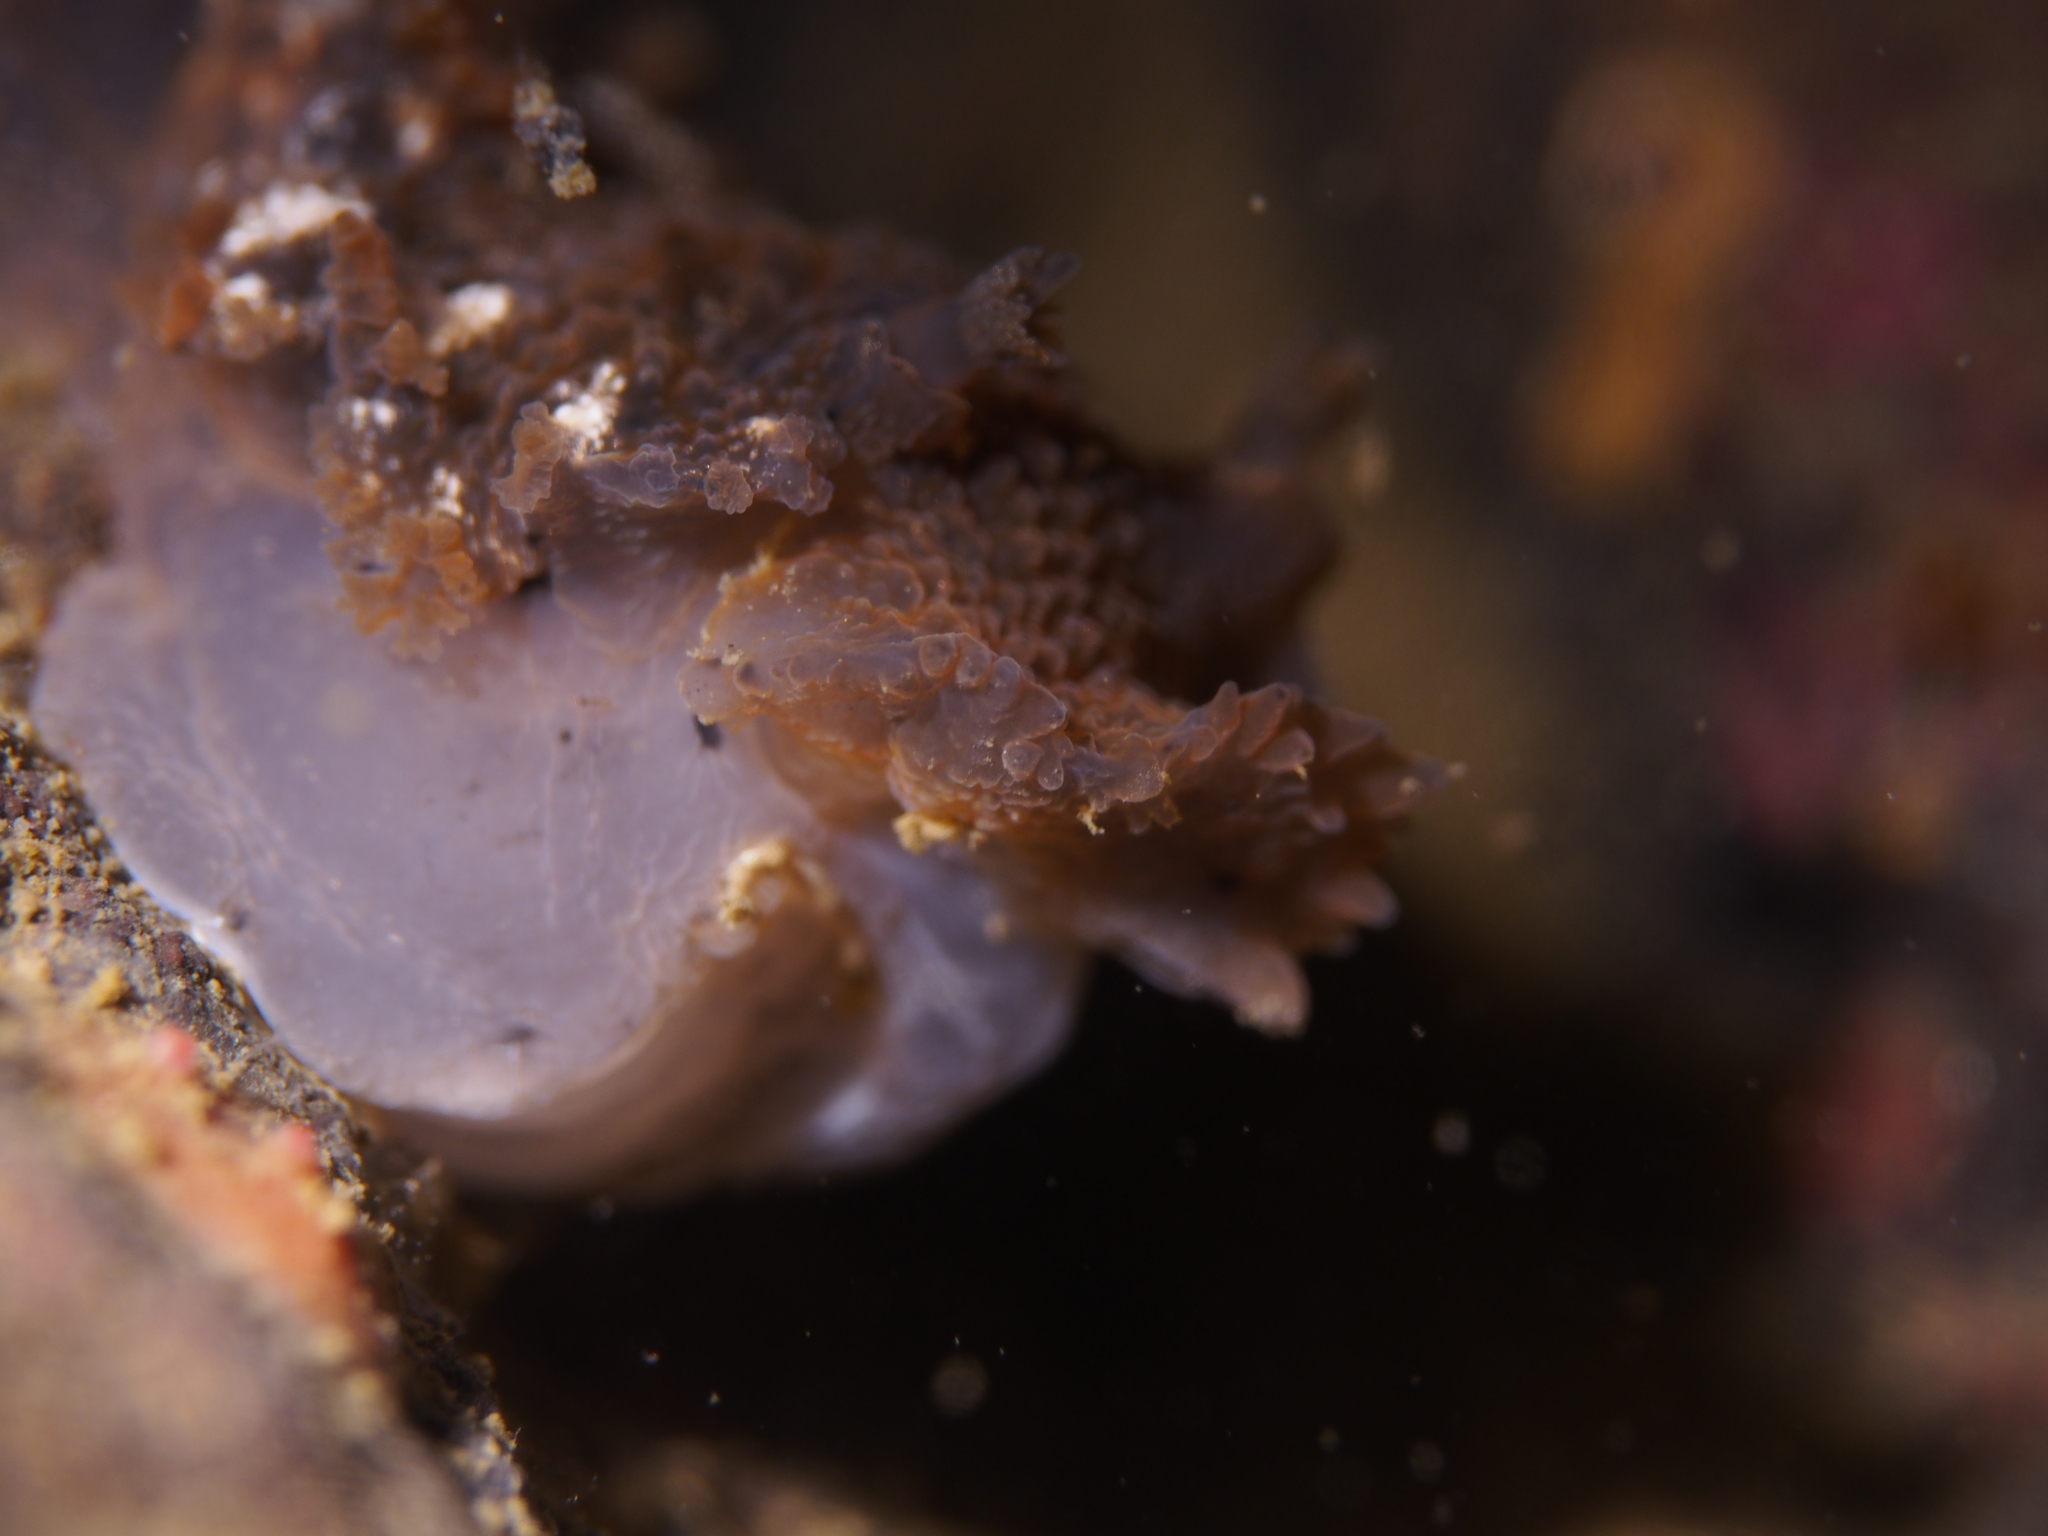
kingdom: Animalia
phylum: Mollusca
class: Gastropoda
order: Nudibranchia
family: Tritoniidae
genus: Tritonia
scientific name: Tritonia hombergii
